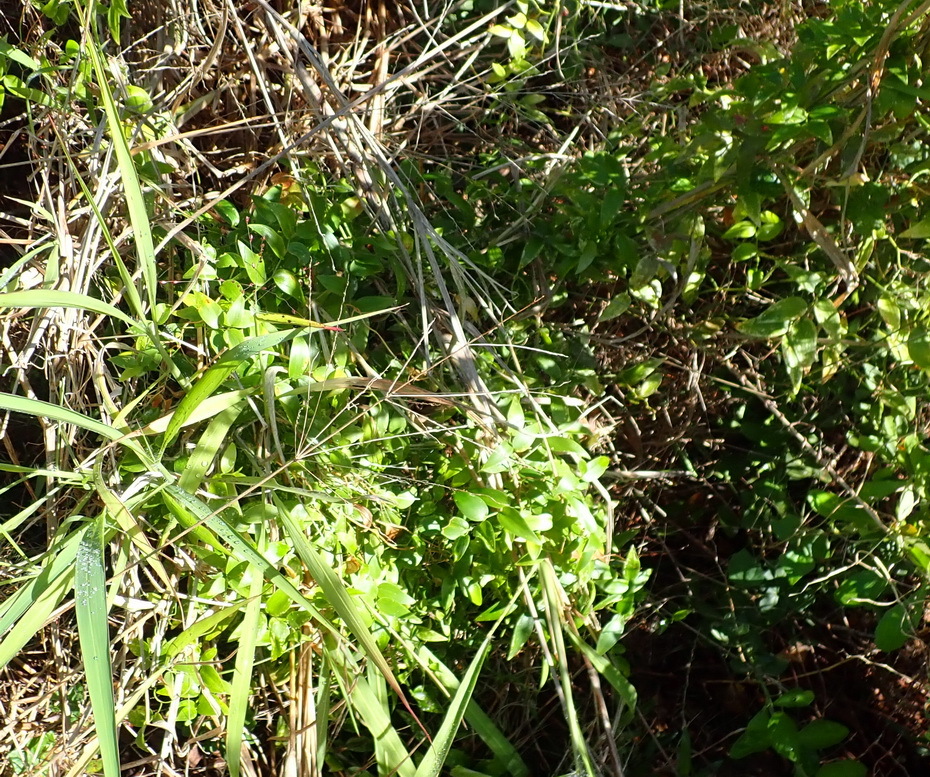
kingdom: Plantae
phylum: Tracheophyta
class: Liliopsida
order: Asparagales
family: Asparagaceae
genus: Asparagus
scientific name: Asparagus asparagoides
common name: African asparagus fern
